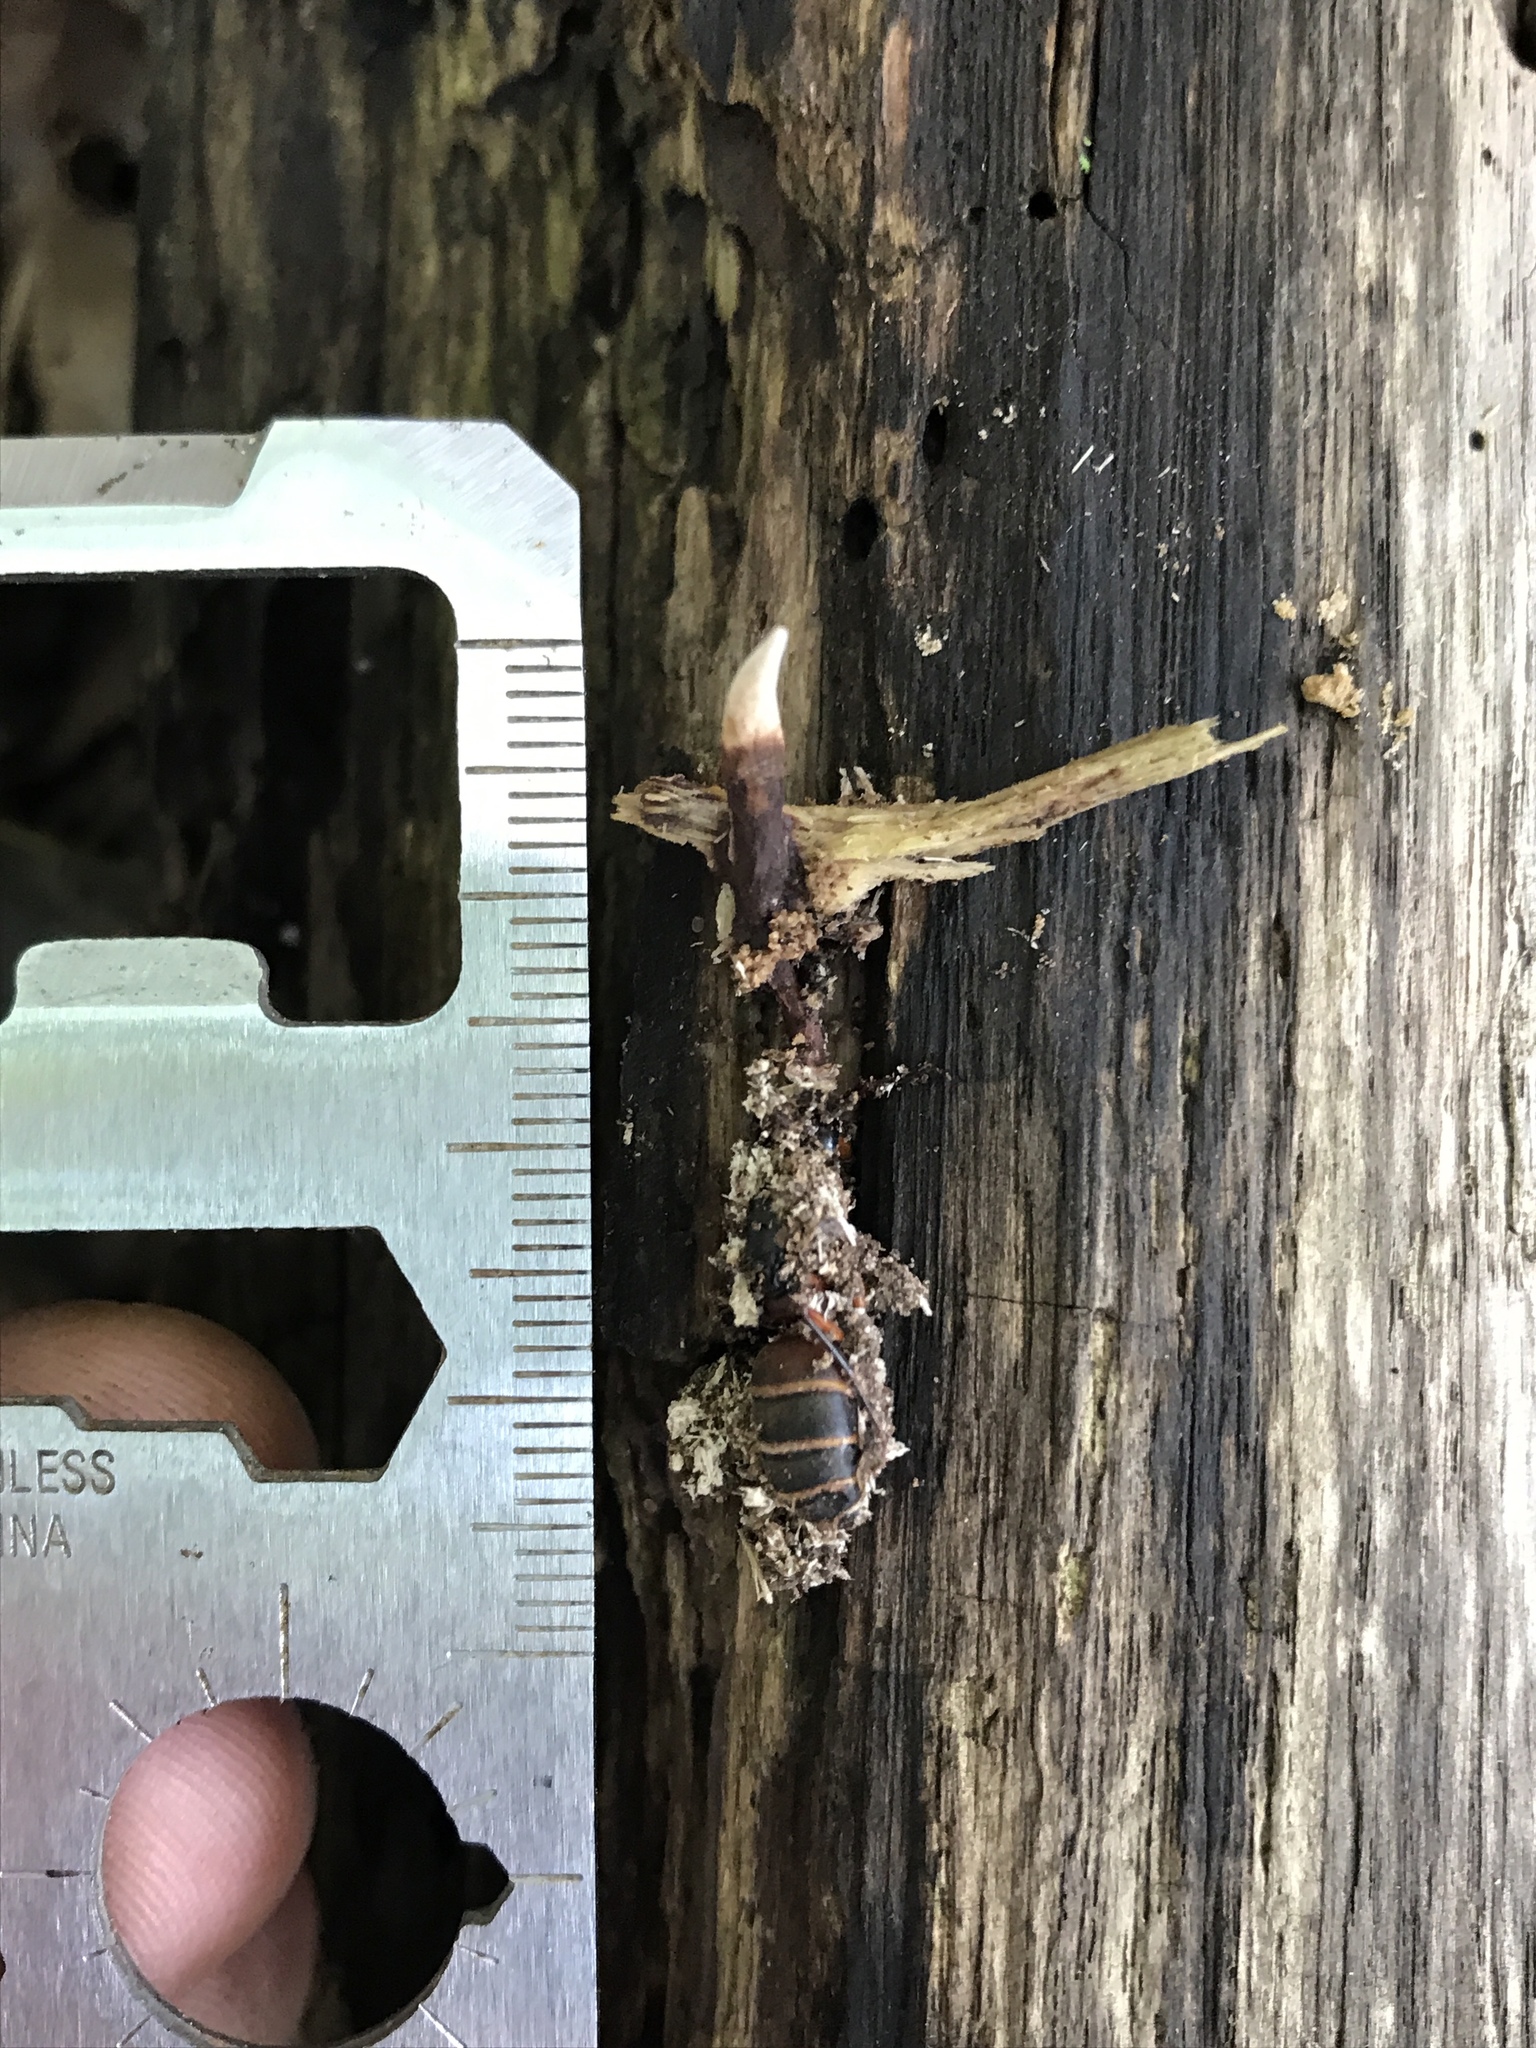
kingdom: Fungi
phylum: Ascomycota
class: Sordariomycetes
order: Hypocreales
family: Ophiocordycipitaceae
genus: Ophiocordyceps
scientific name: Ophiocordyceps smithii
